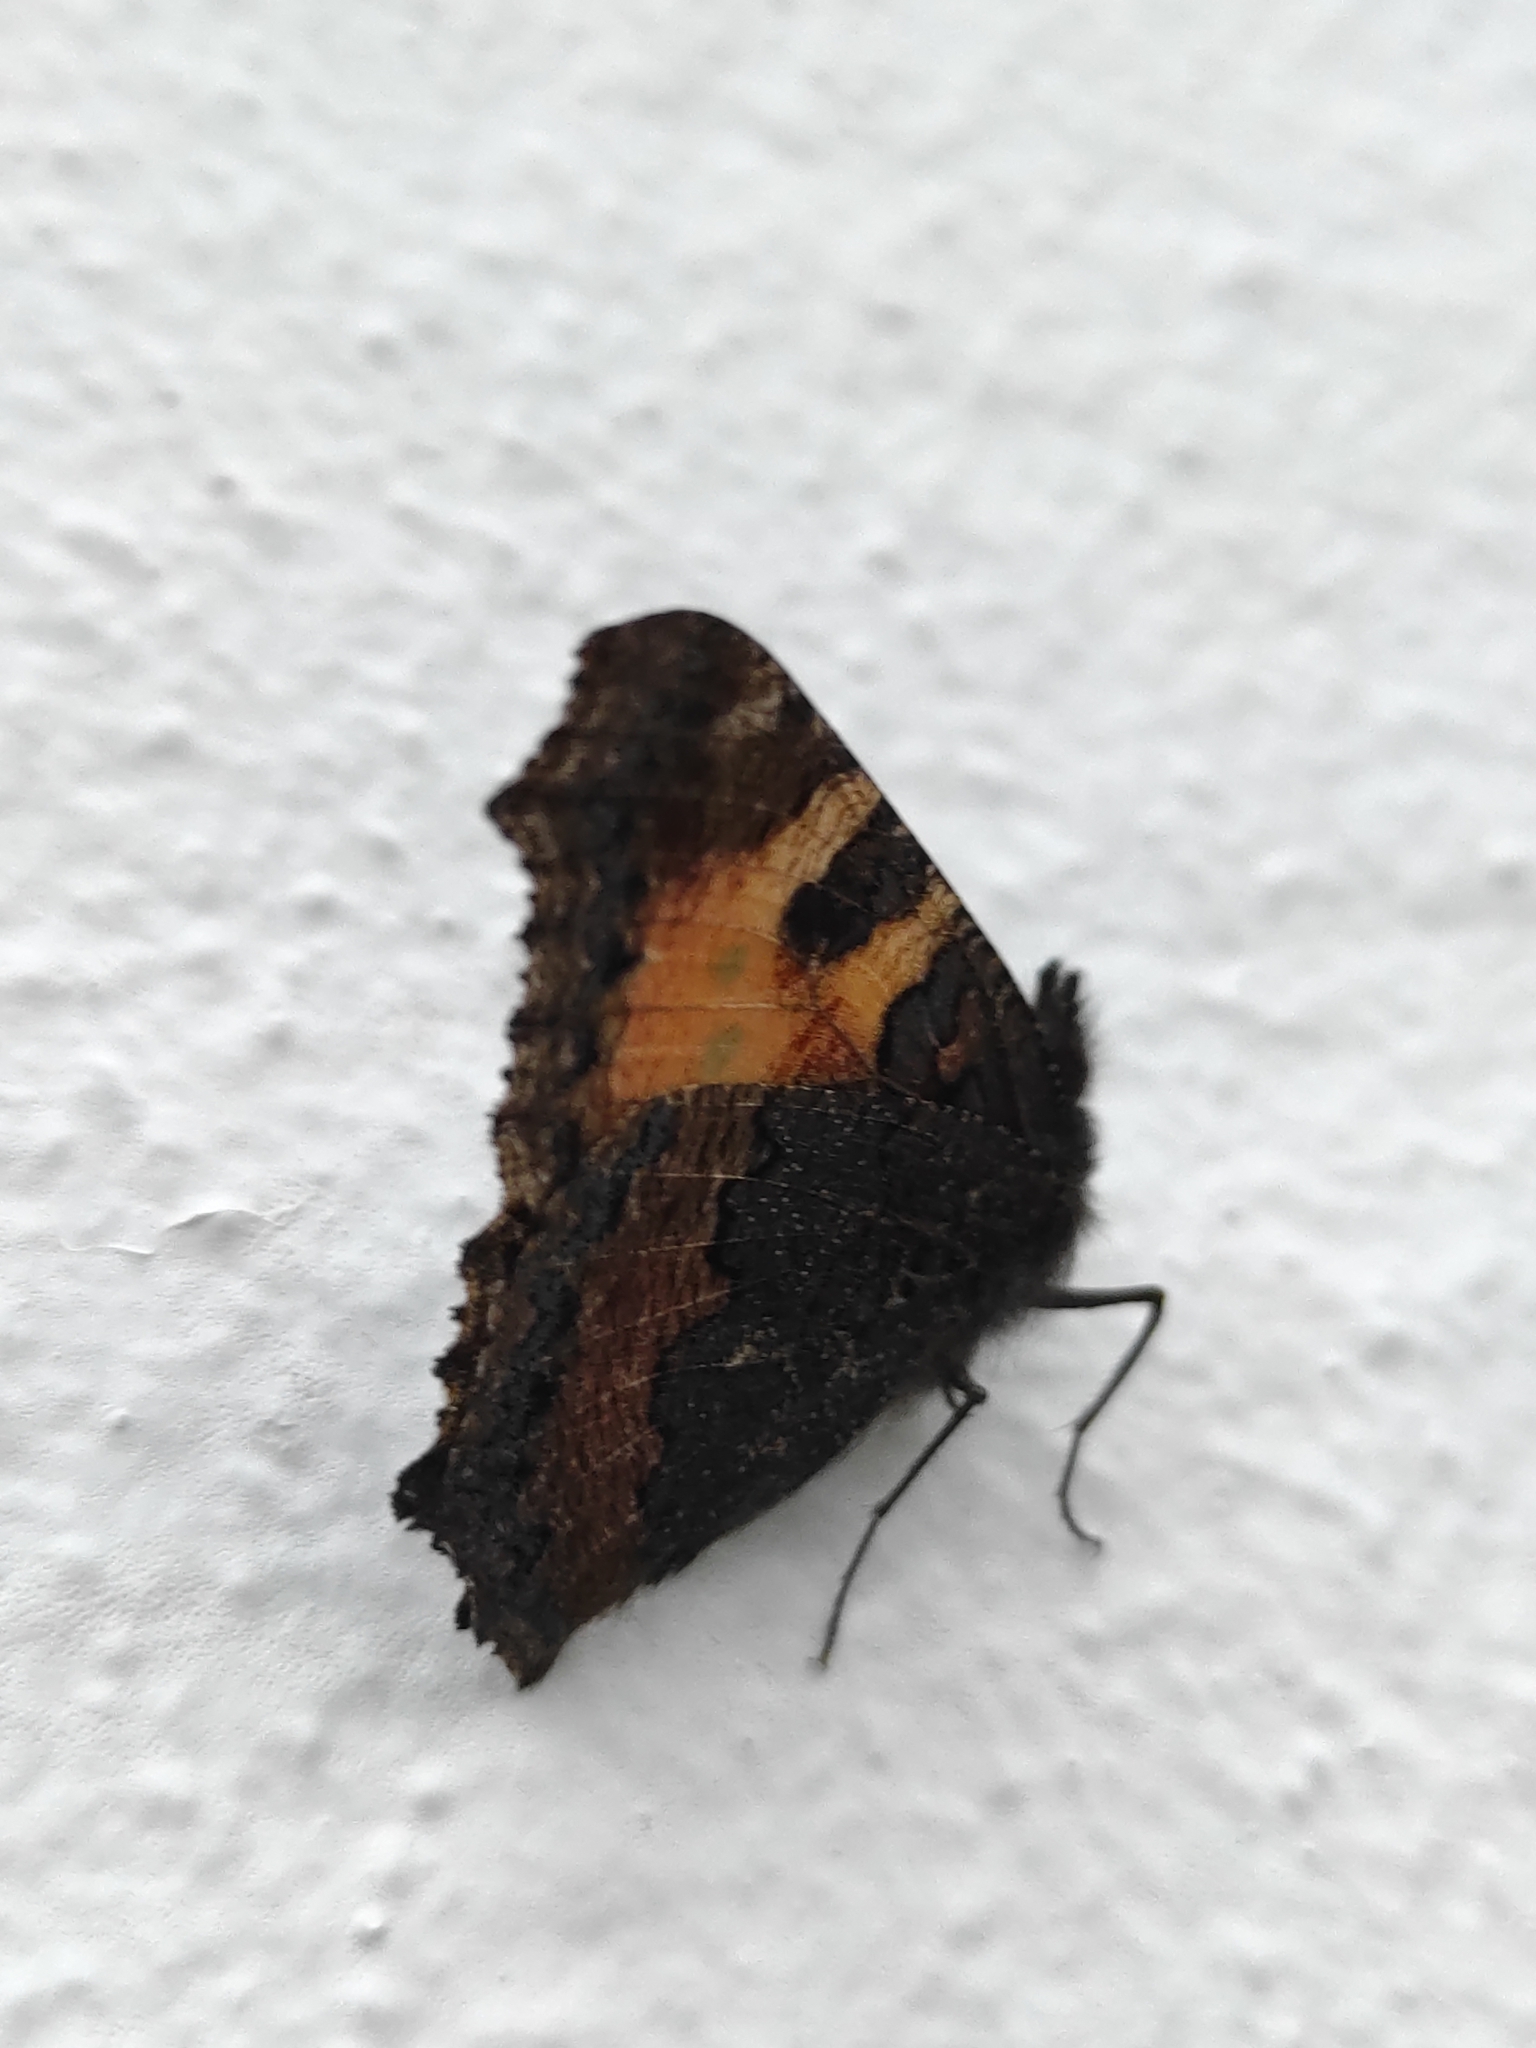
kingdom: Animalia
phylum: Arthropoda
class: Insecta
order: Lepidoptera
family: Nymphalidae
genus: Aglais
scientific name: Aglais urticae
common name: Small tortoiseshell
